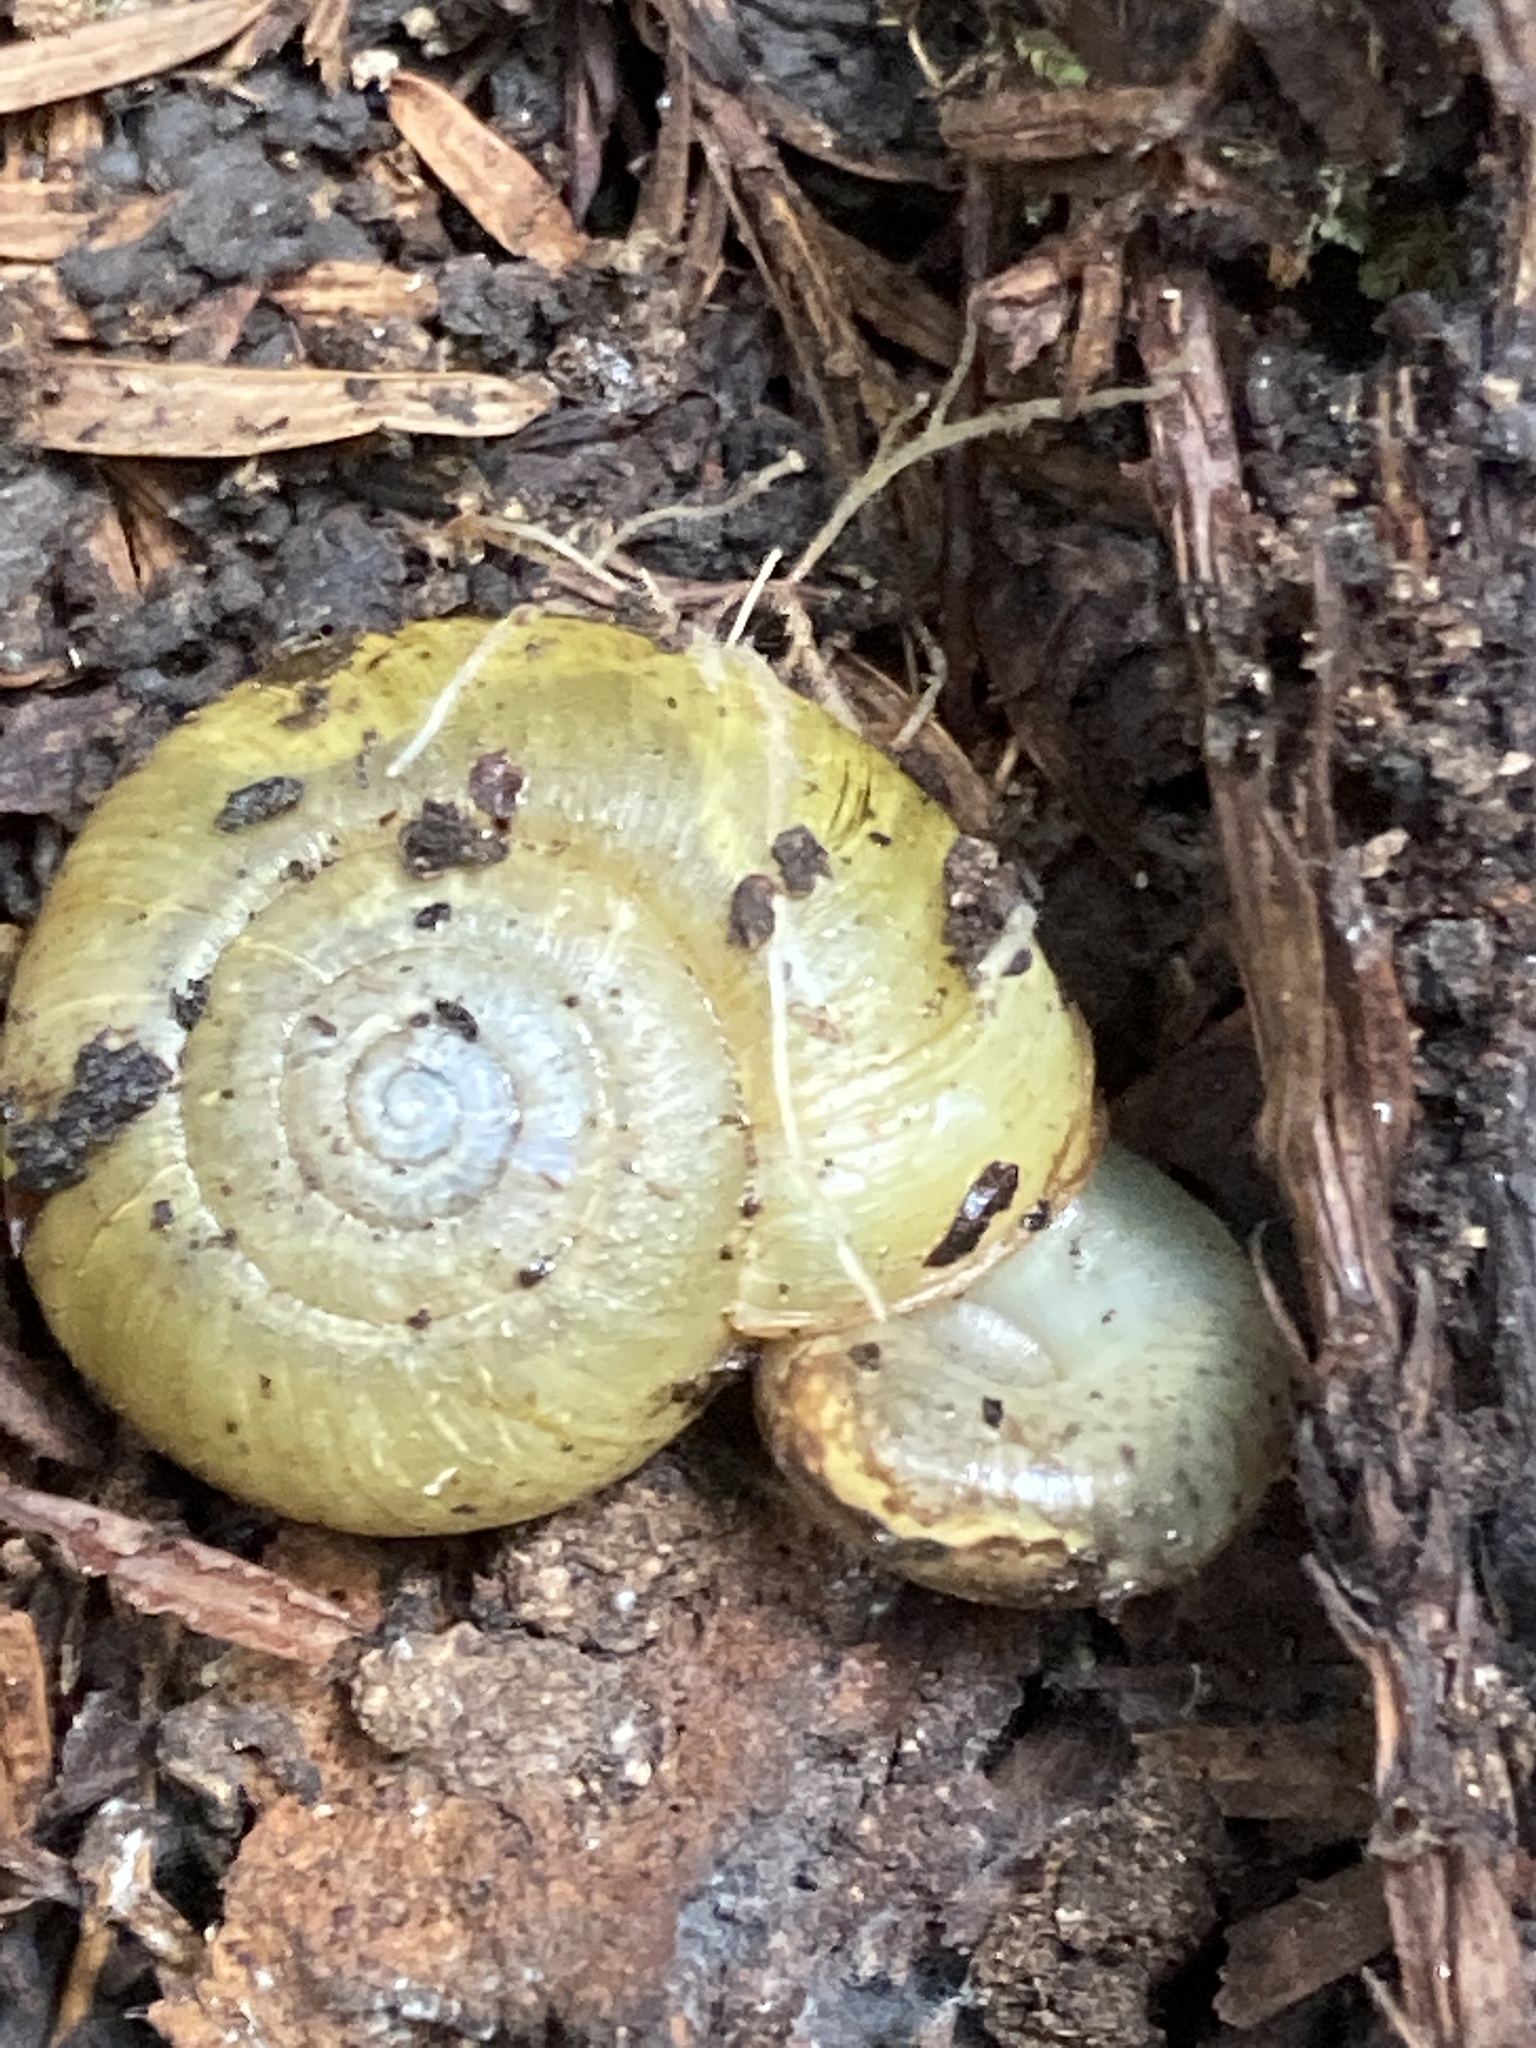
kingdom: Animalia
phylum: Mollusca
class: Gastropoda
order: Stylommatophora
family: Haplotrematidae
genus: Haplotrema
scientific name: Haplotrema minimum
